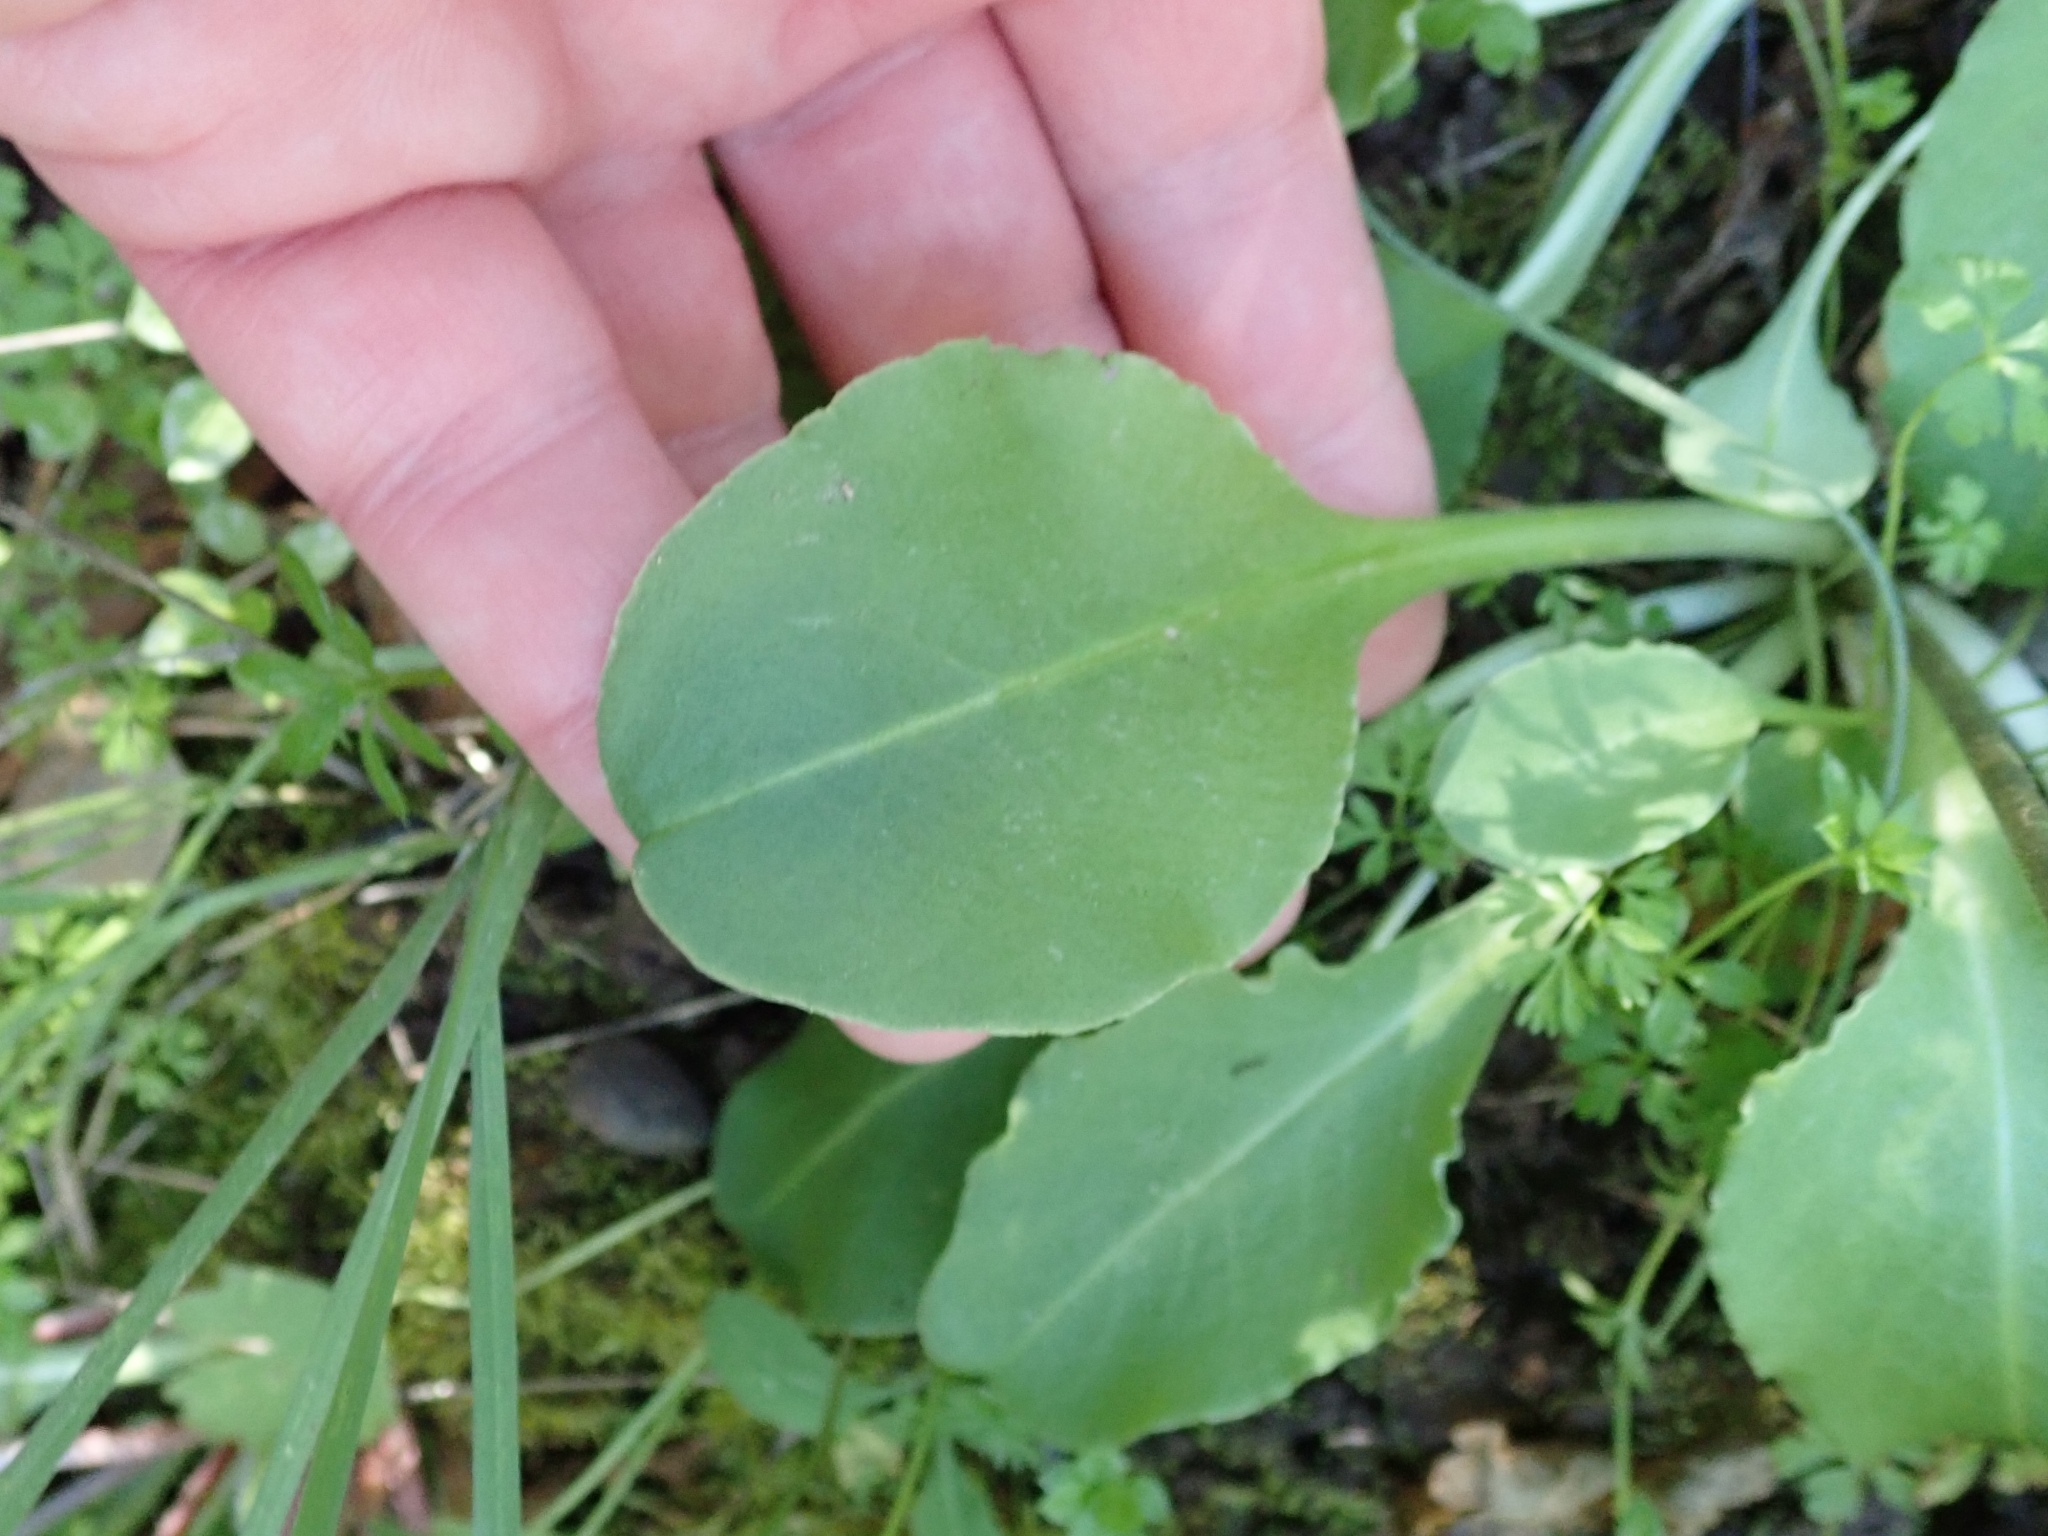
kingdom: Plantae
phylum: Tracheophyta
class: Magnoliopsida
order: Ericales
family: Primulaceae
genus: Dodecatheon
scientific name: Dodecatheon hendersonii
